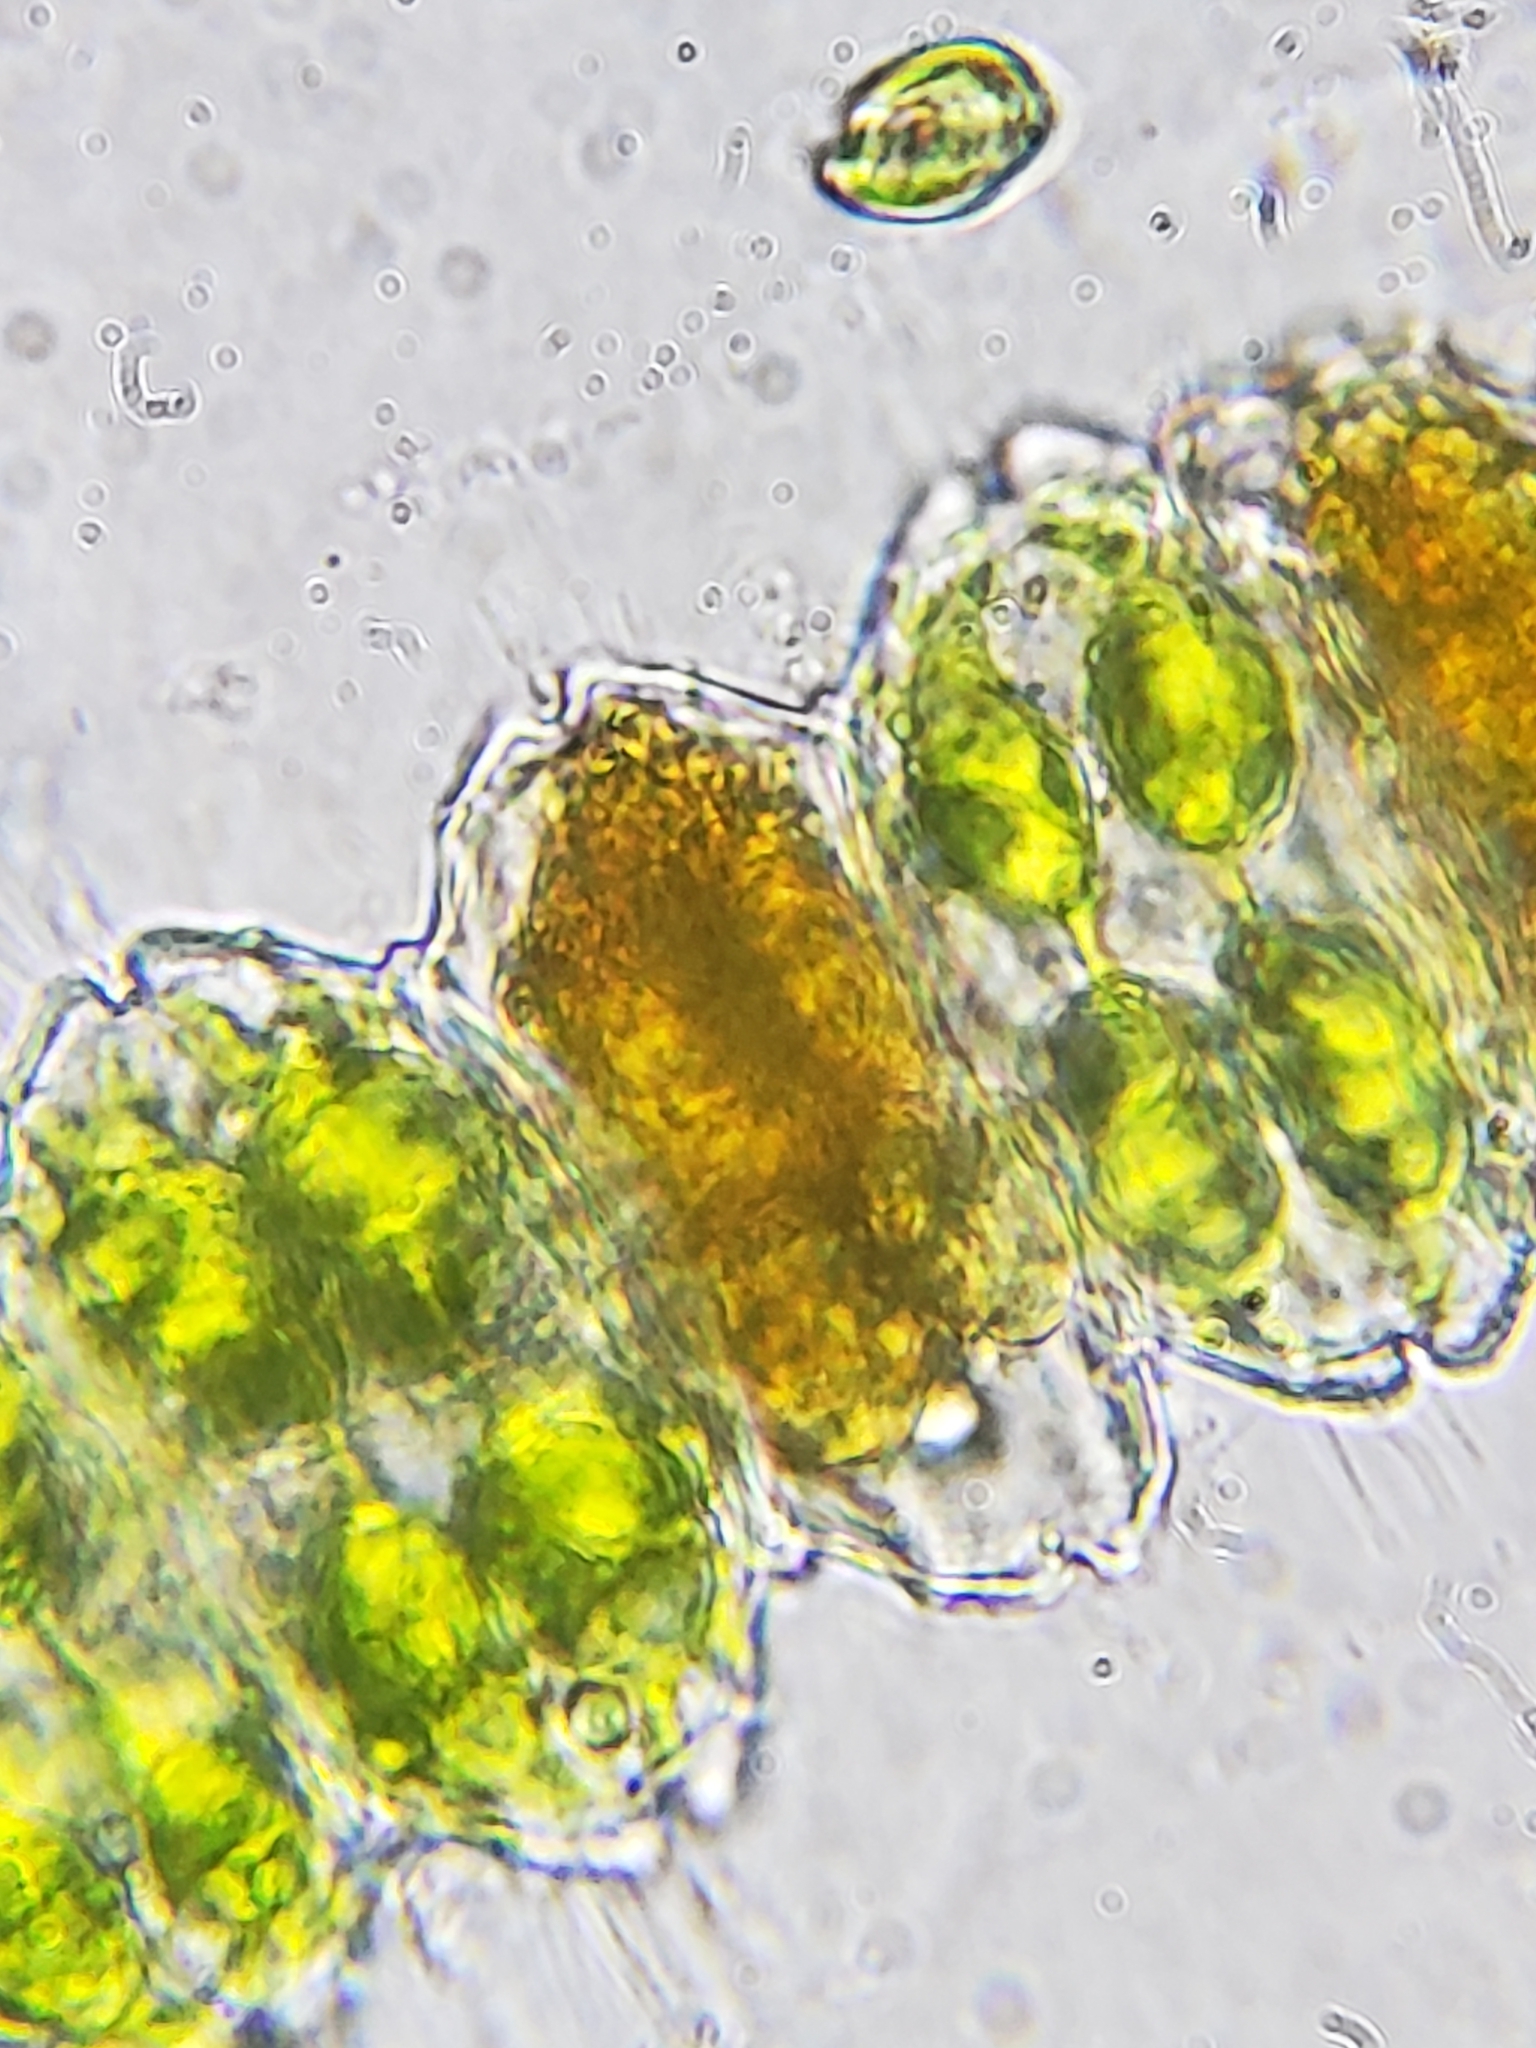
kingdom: Plantae
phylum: Charophyta
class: Conjugatophyceae
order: Desmidiales
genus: Desmidium
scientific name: Desmidium grevillei
